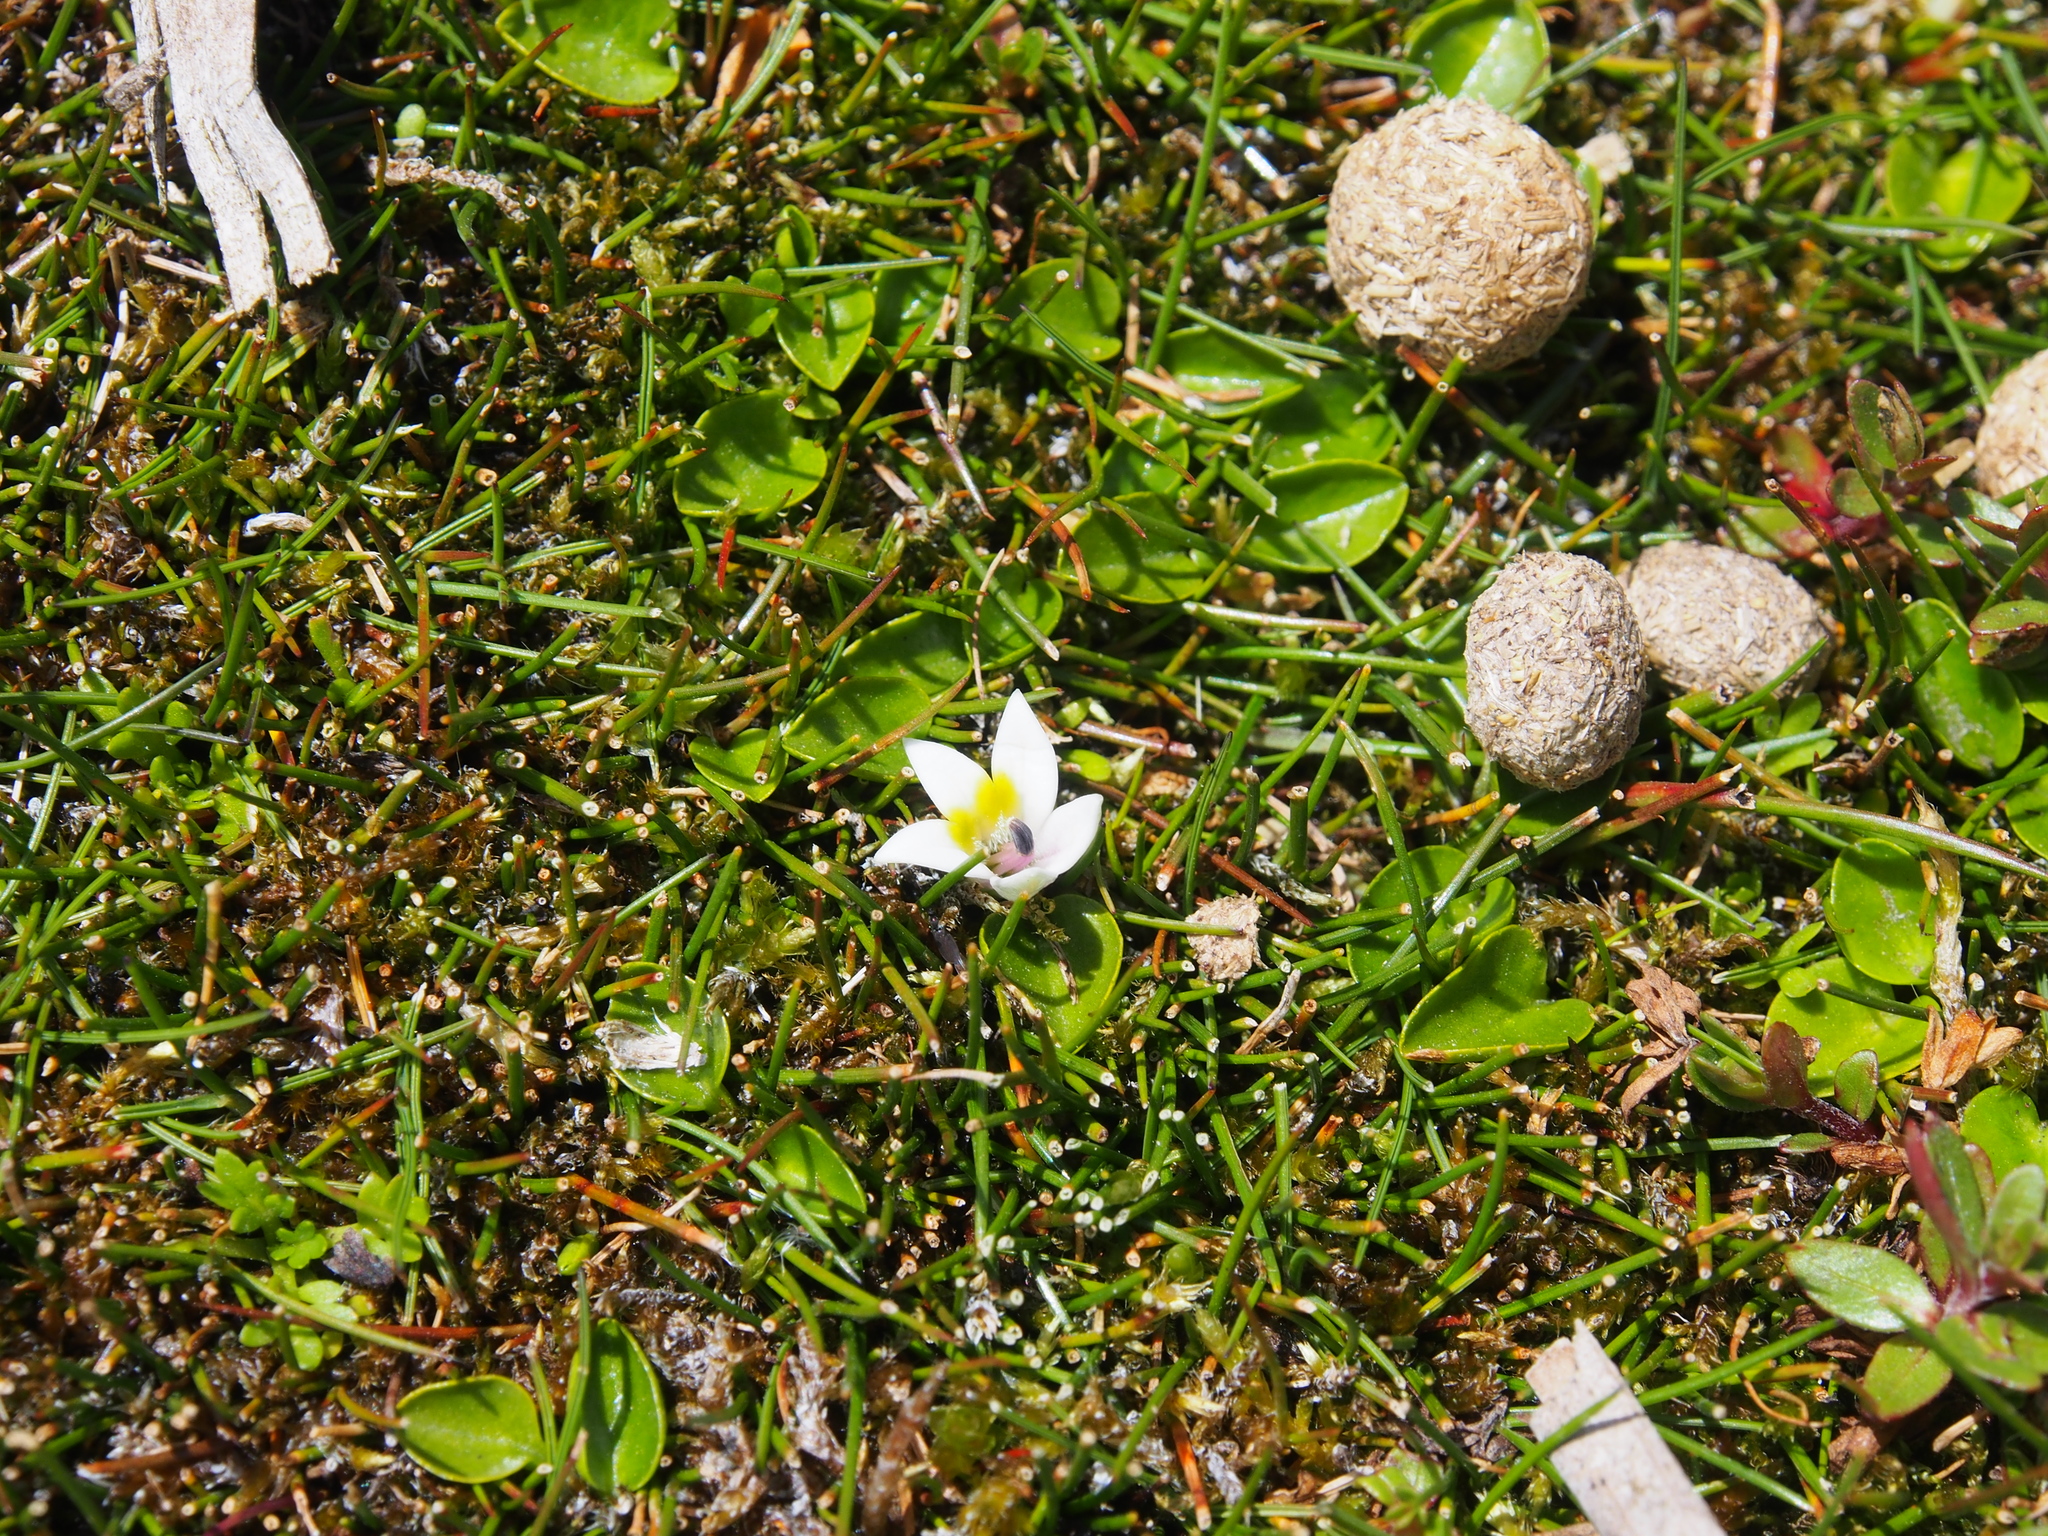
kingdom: Plantae
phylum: Tracheophyta
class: Magnoliopsida
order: Asterales
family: Campanulaceae
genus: Lobelia
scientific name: Lobelia oligophylla
